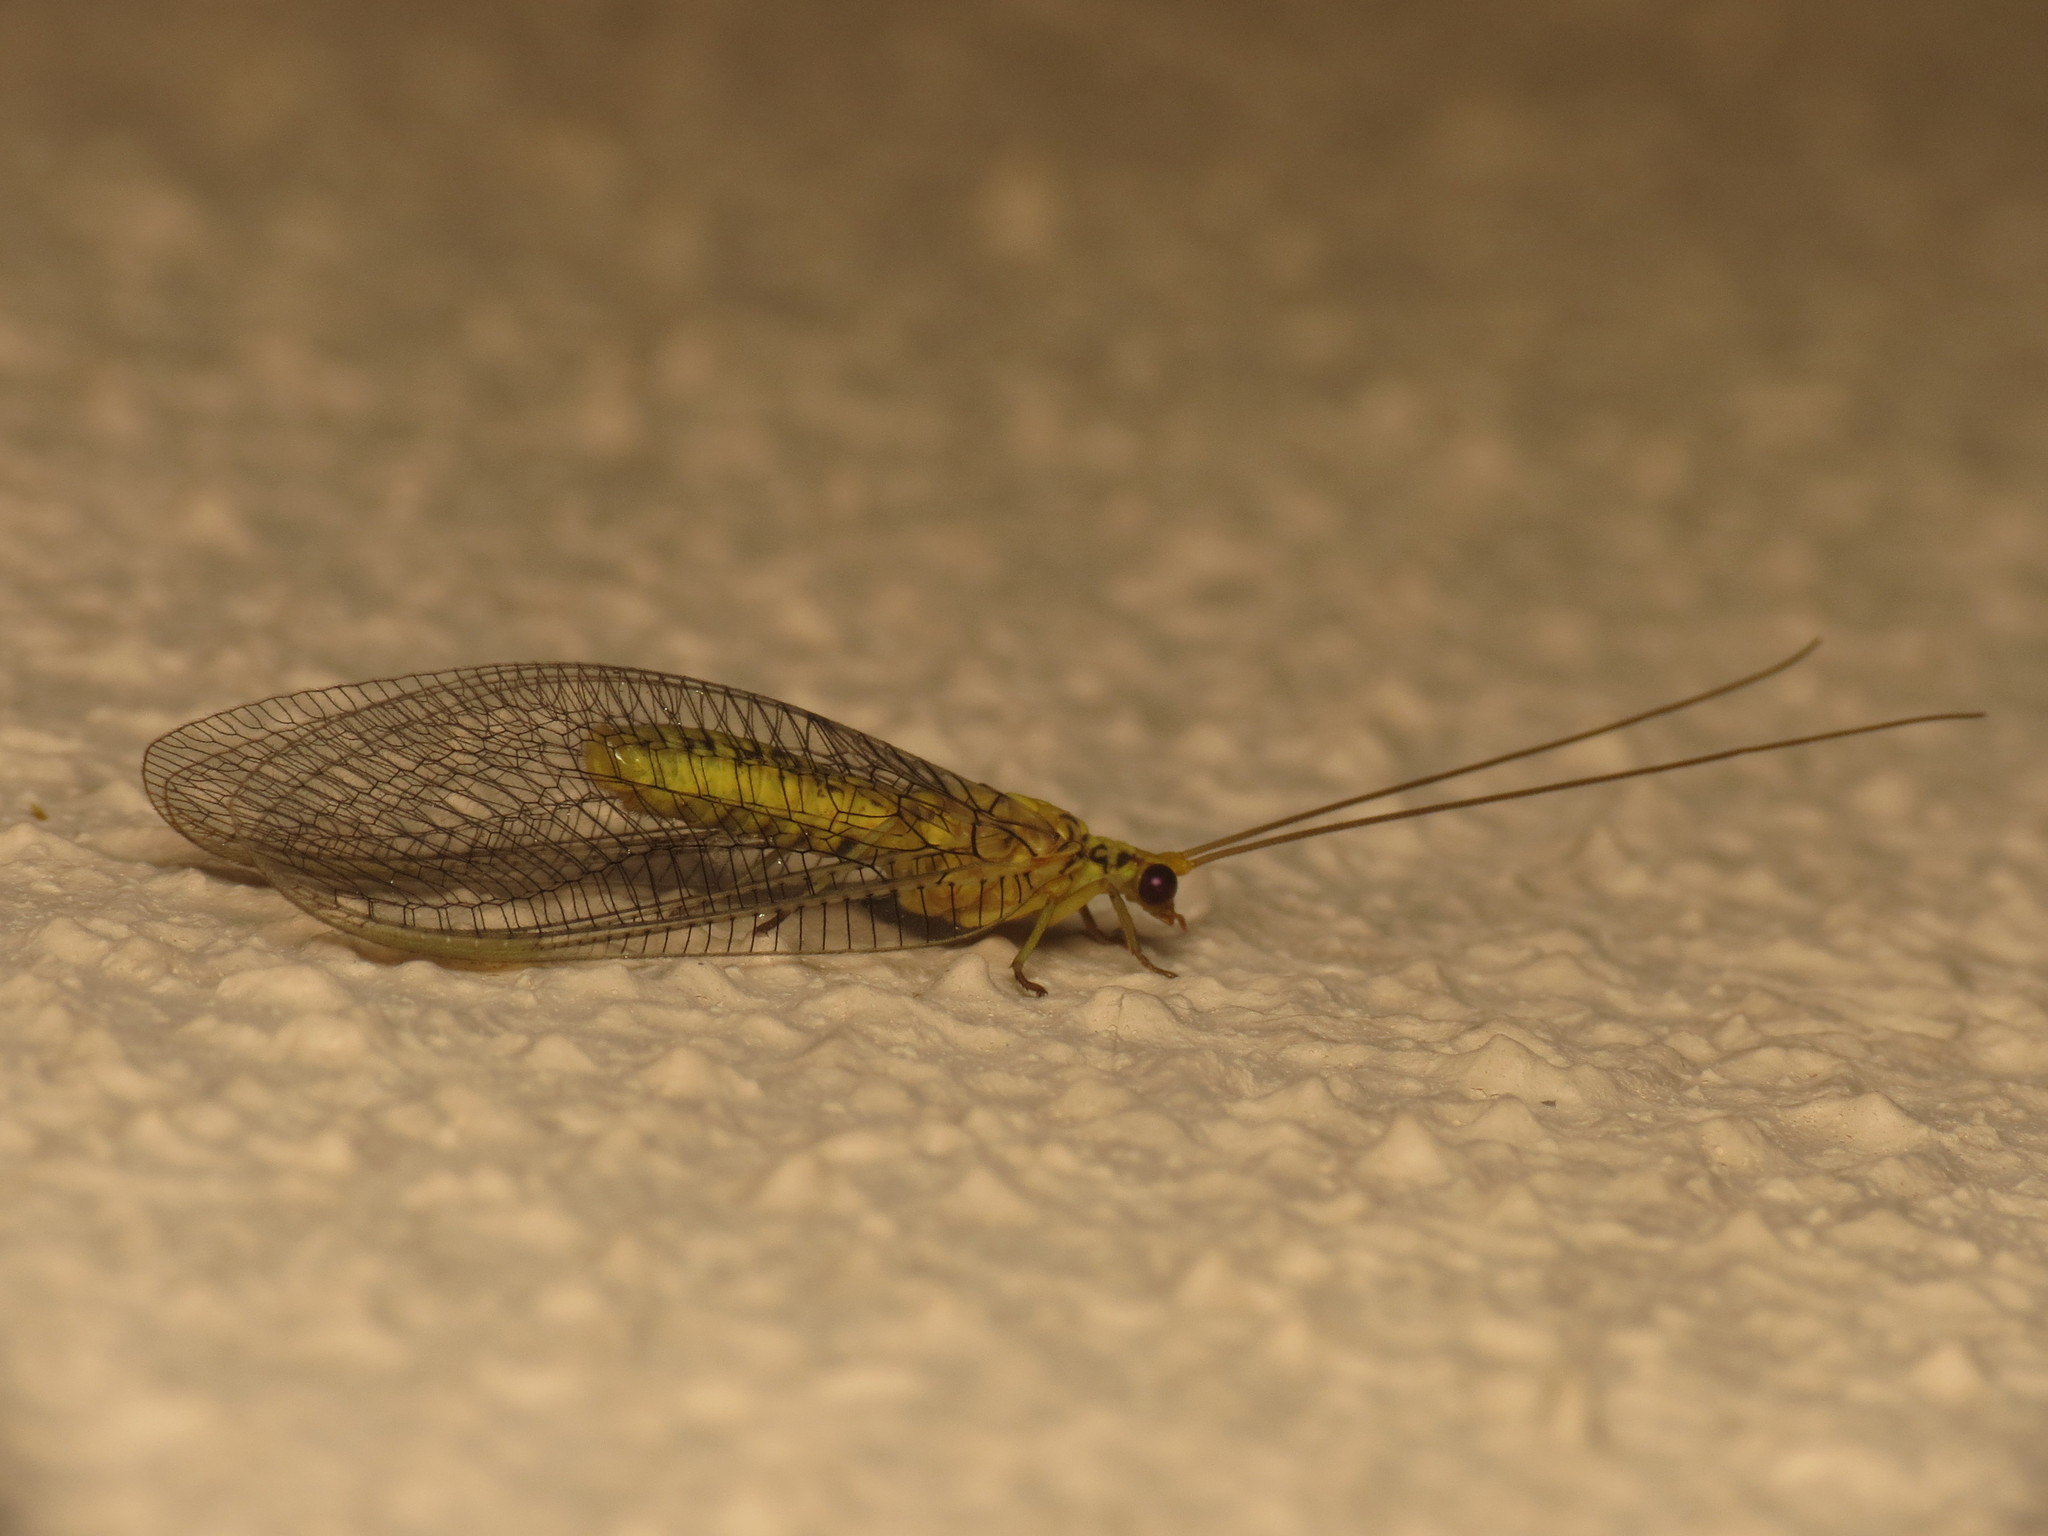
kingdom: Animalia
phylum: Arthropoda
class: Insecta
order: Neuroptera
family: Chrysopidae
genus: Italochrysa
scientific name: Italochrysa insignis
